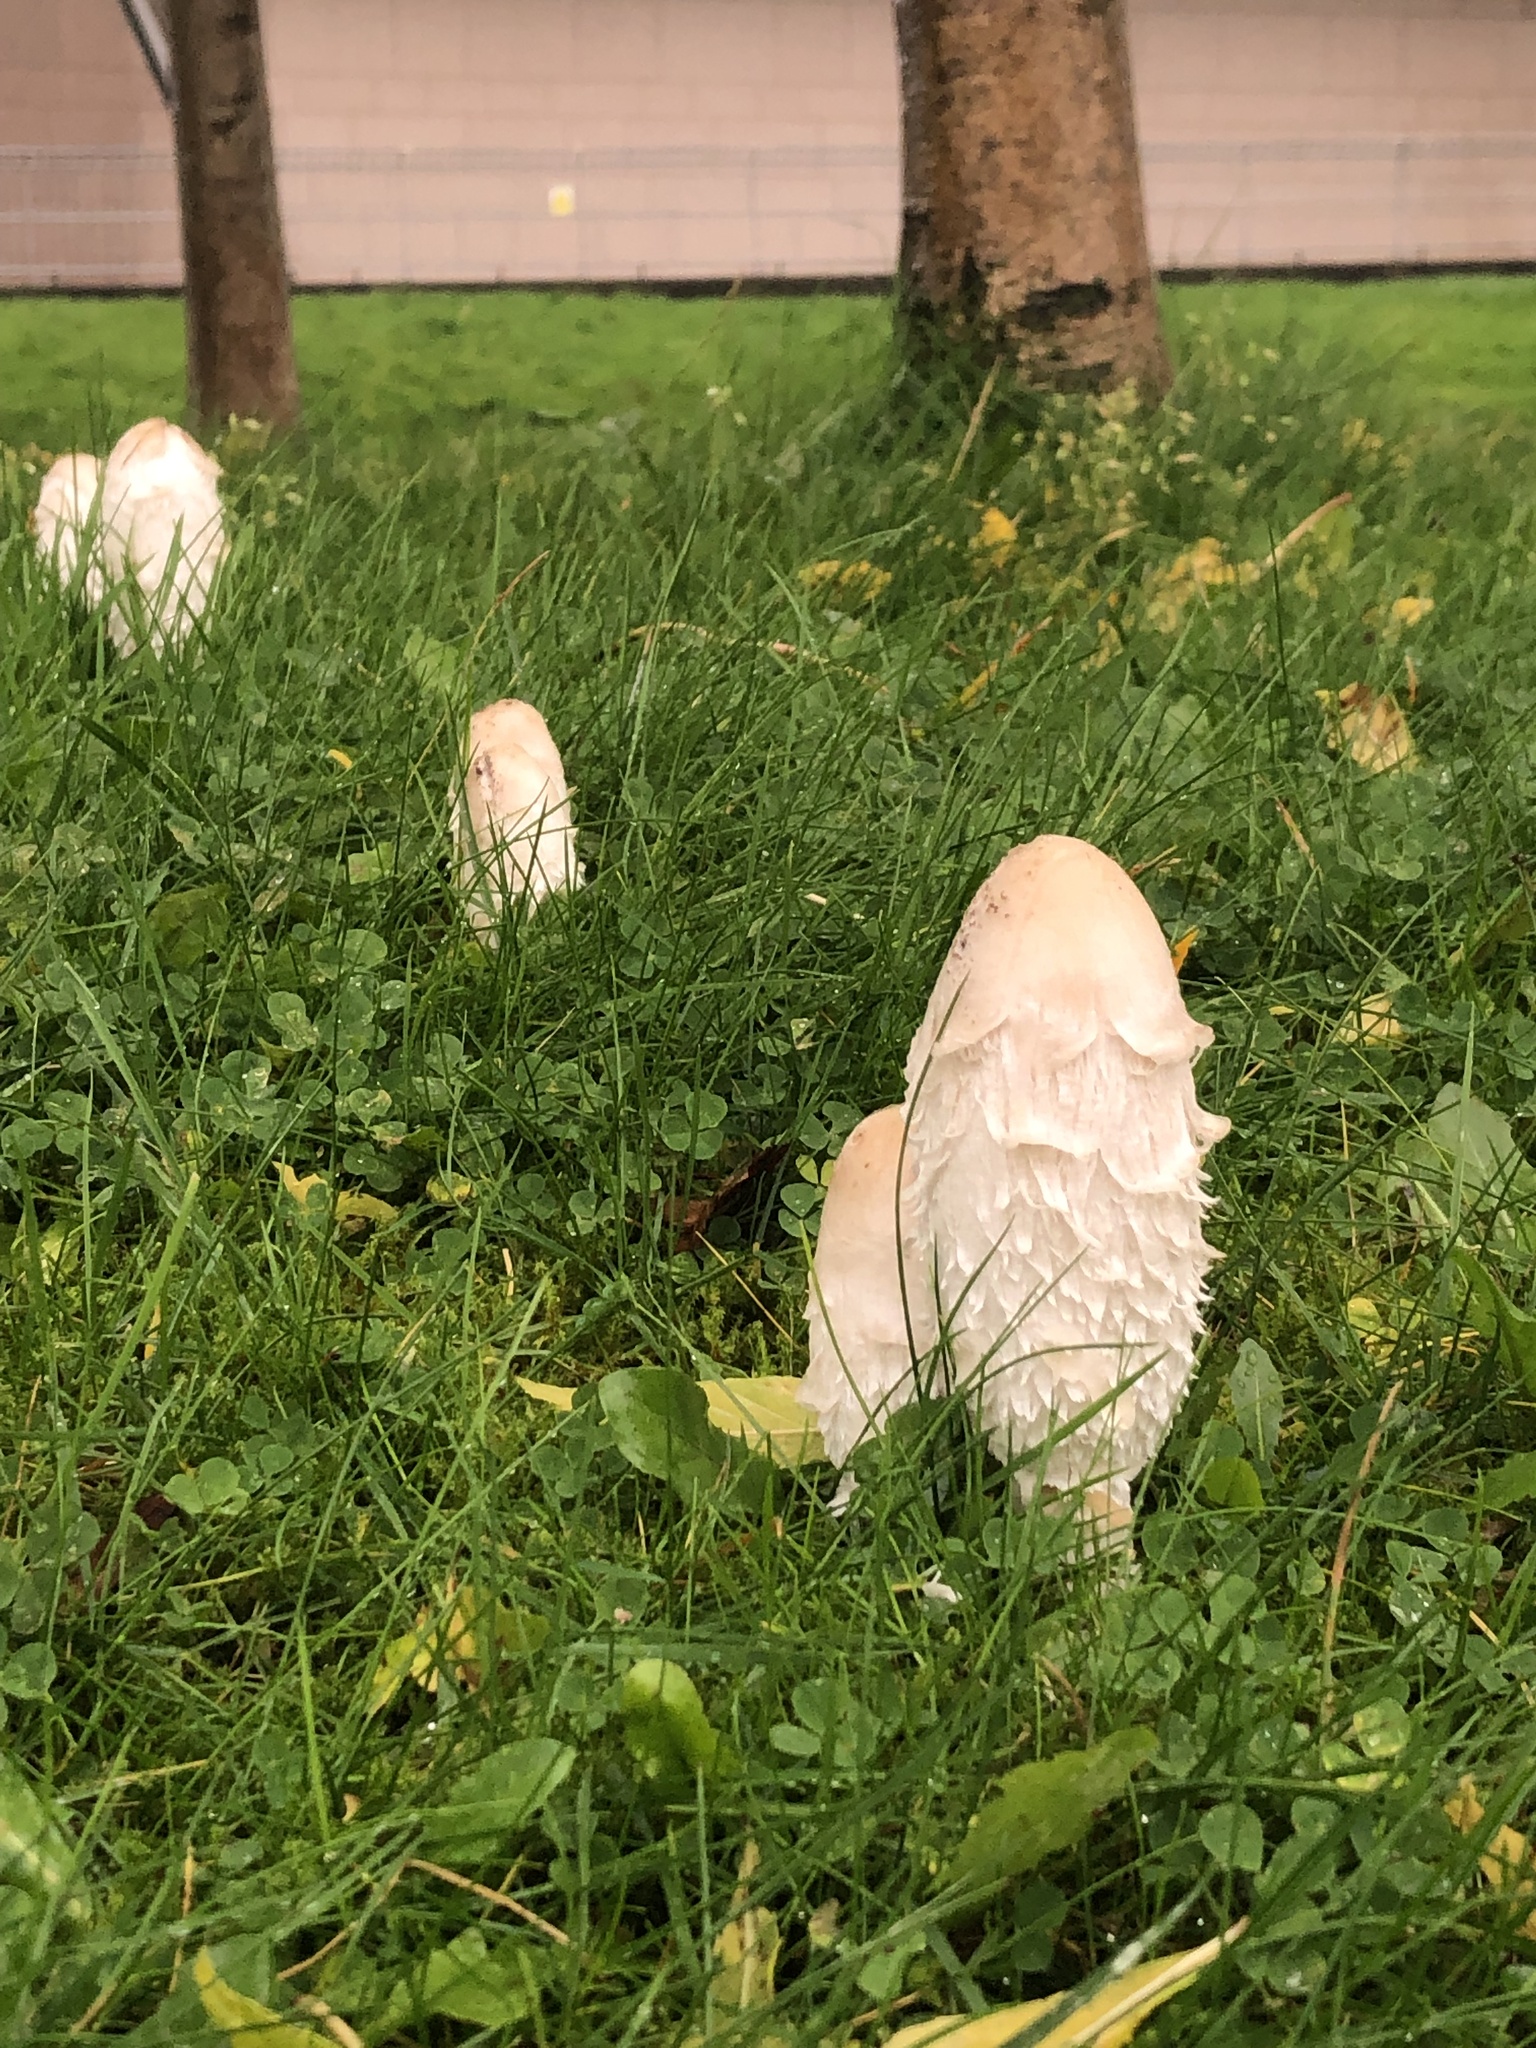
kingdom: Fungi
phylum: Basidiomycota
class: Agaricomycetes
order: Agaricales
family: Agaricaceae
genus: Coprinus
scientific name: Coprinus comatus
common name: Lawyer's wig
